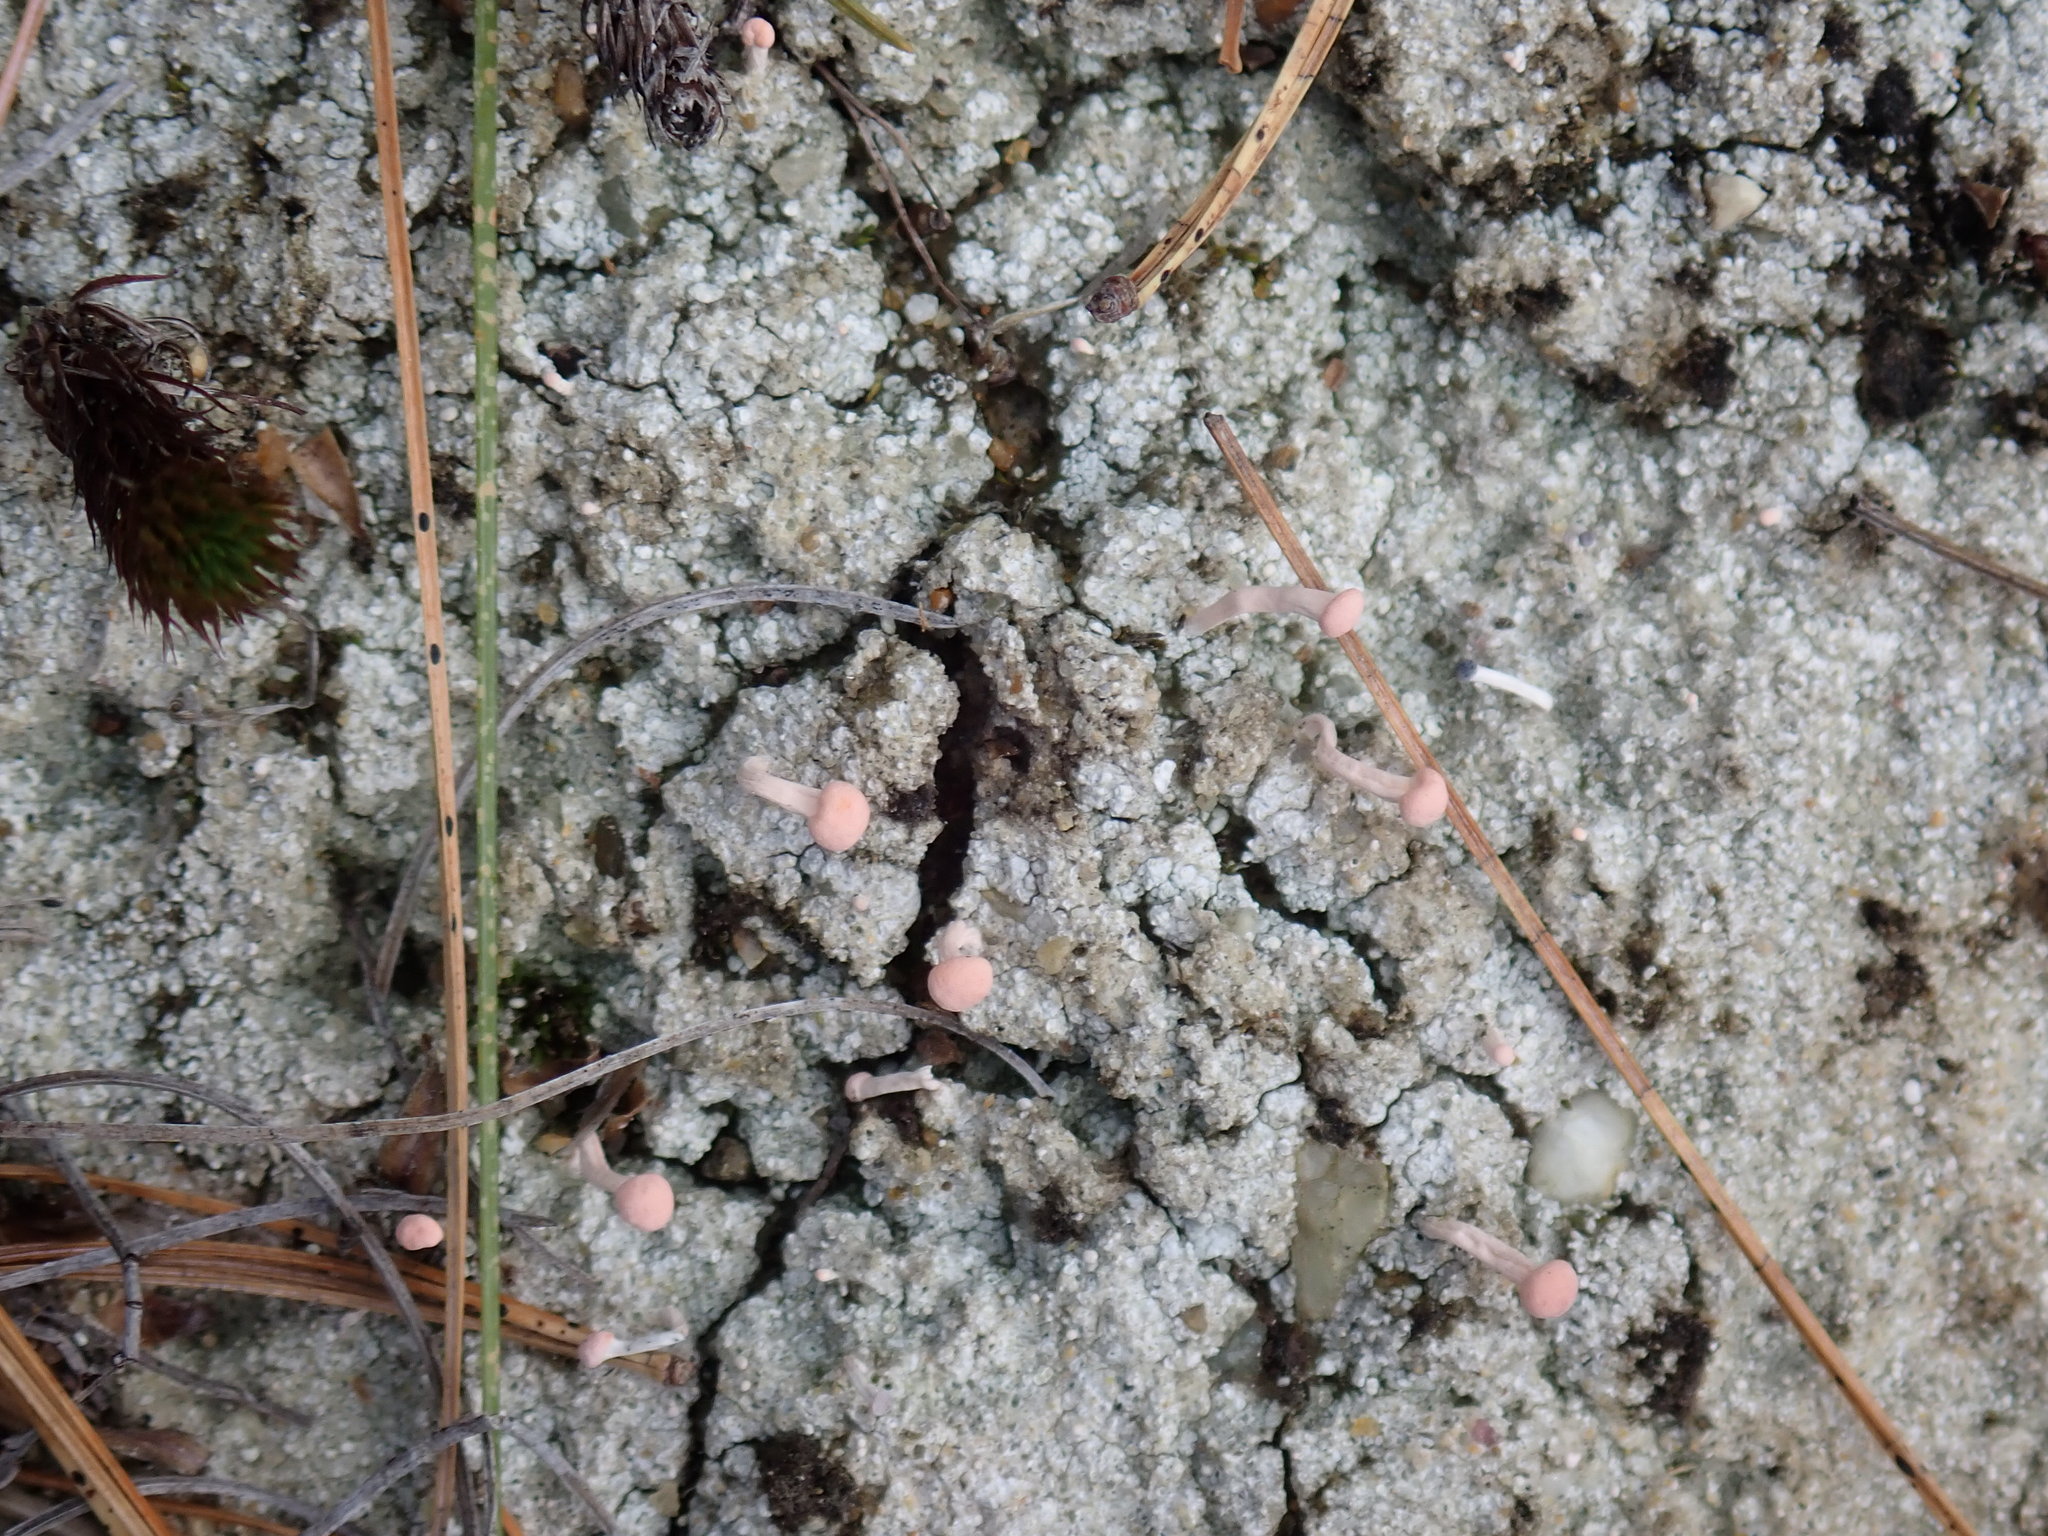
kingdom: Fungi
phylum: Ascomycota
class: Lecanoromycetes
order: Pertusariales
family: Icmadophilaceae
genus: Dibaeis
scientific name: Dibaeis baeomyces
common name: Pink earth lichen
